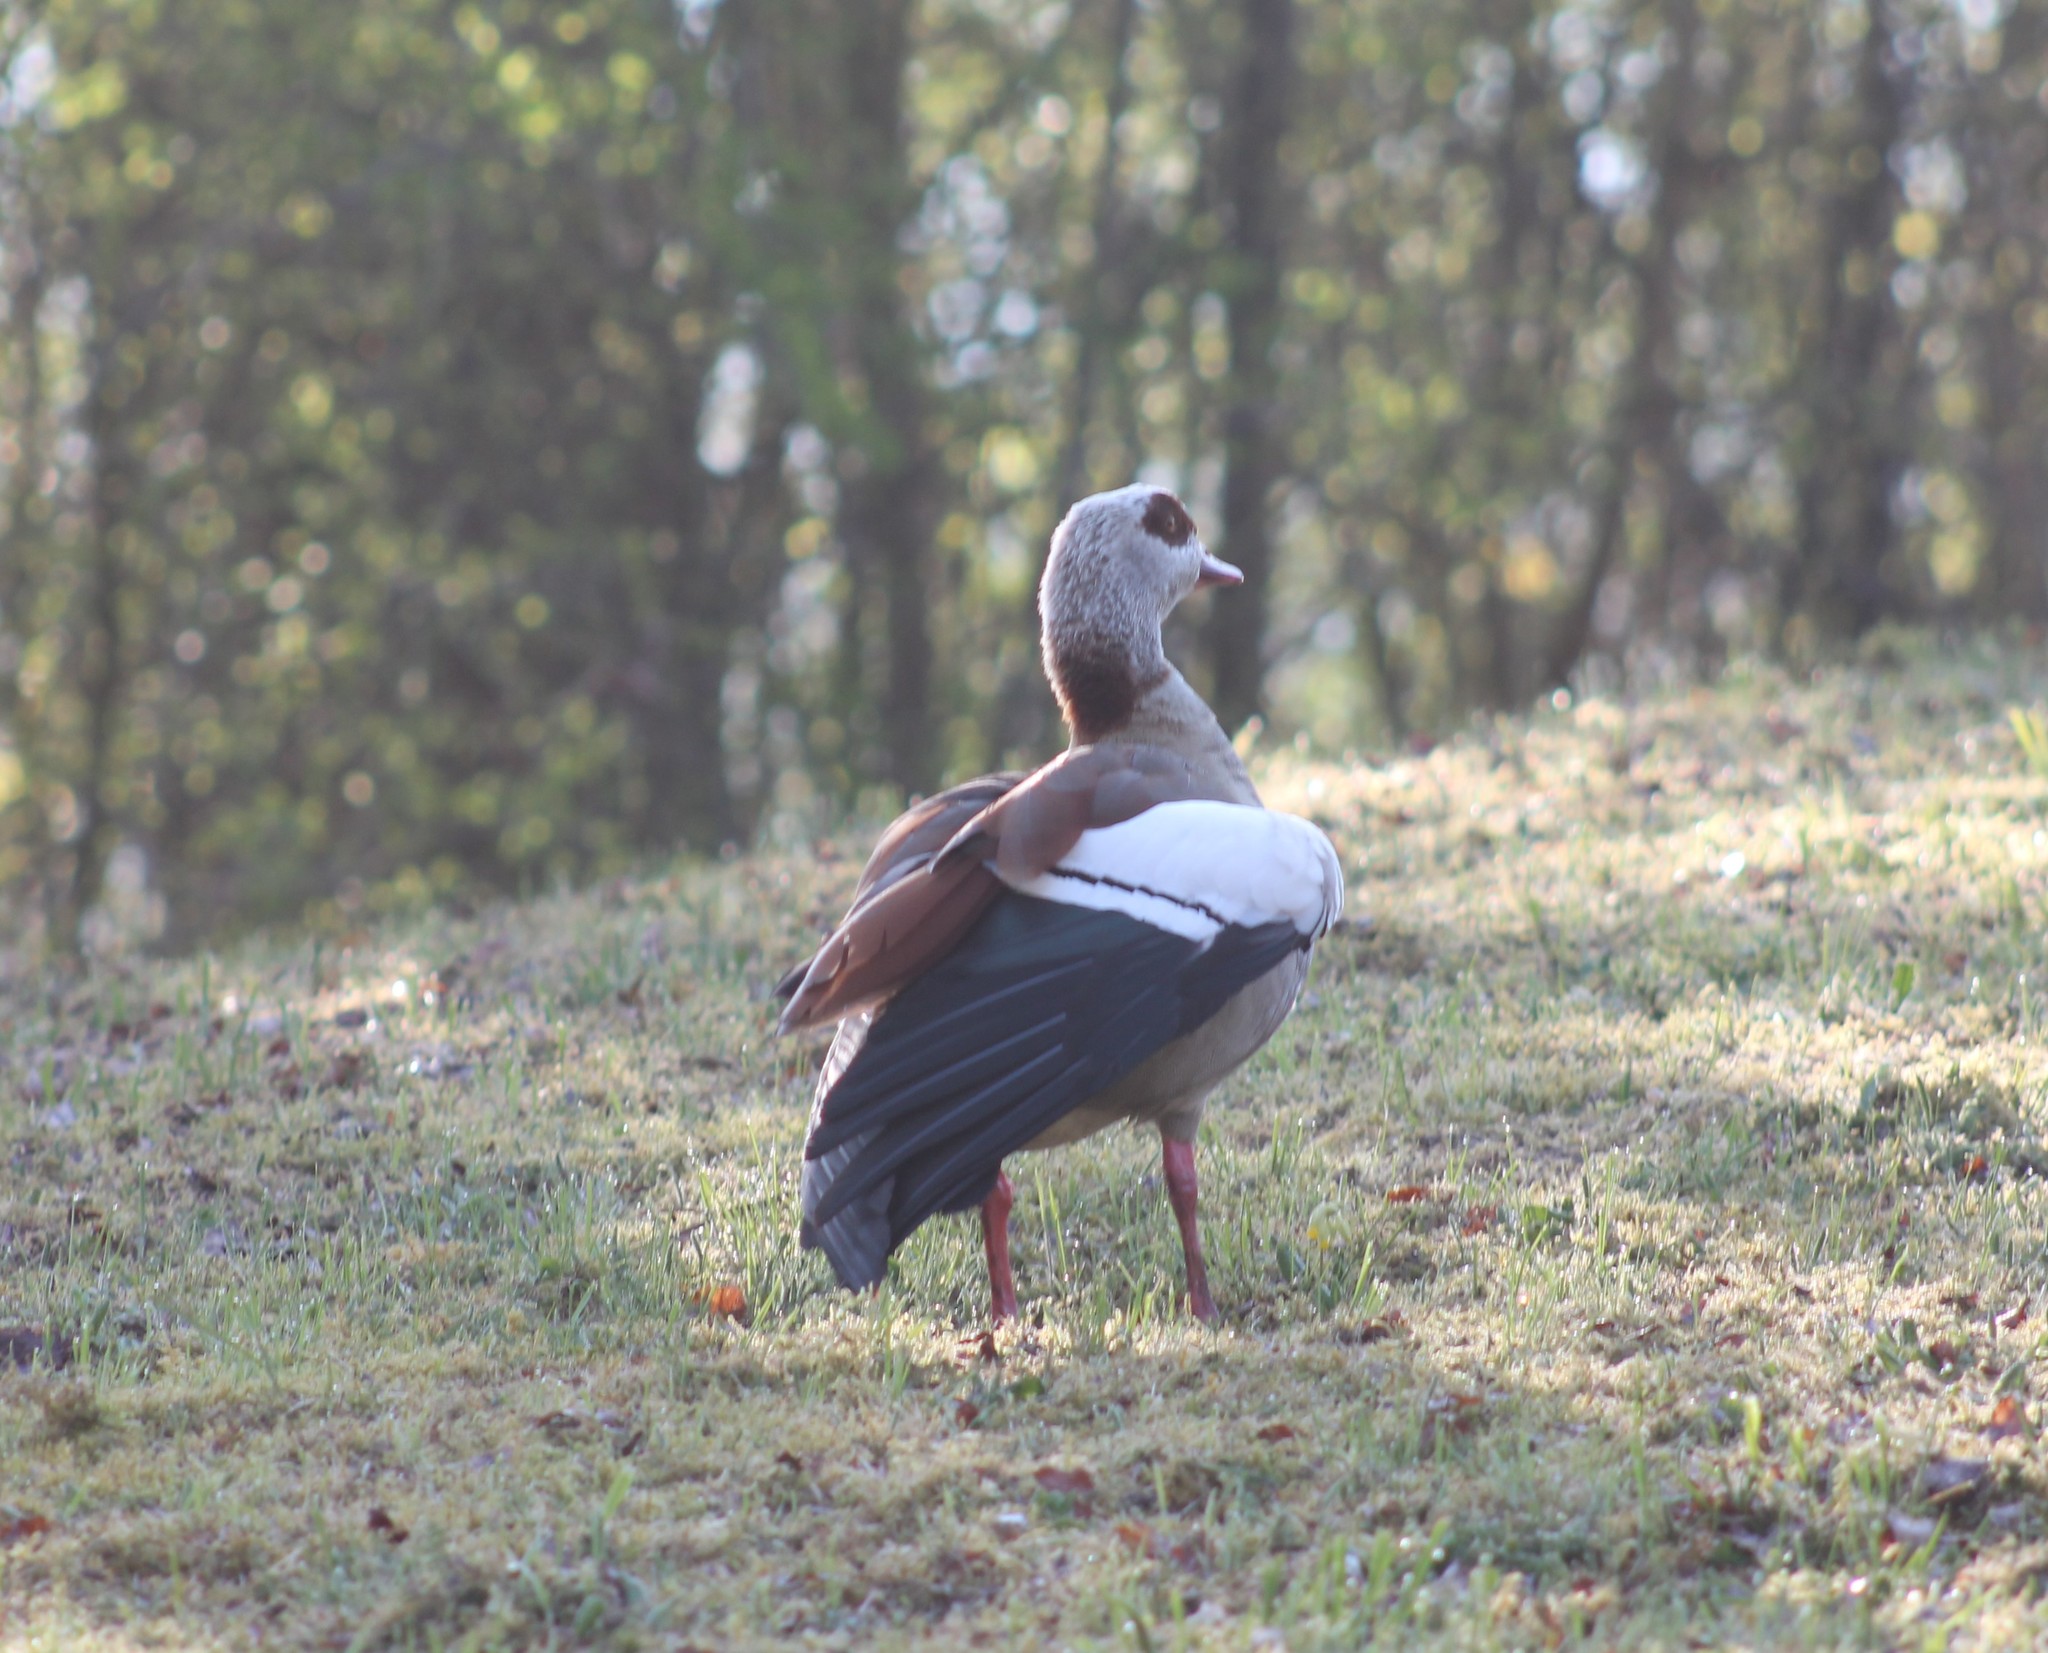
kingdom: Animalia
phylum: Chordata
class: Aves
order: Anseriformes
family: Anatidae
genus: Alopochen
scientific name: Alopochen aegyptiaca
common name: Egyptian goose
